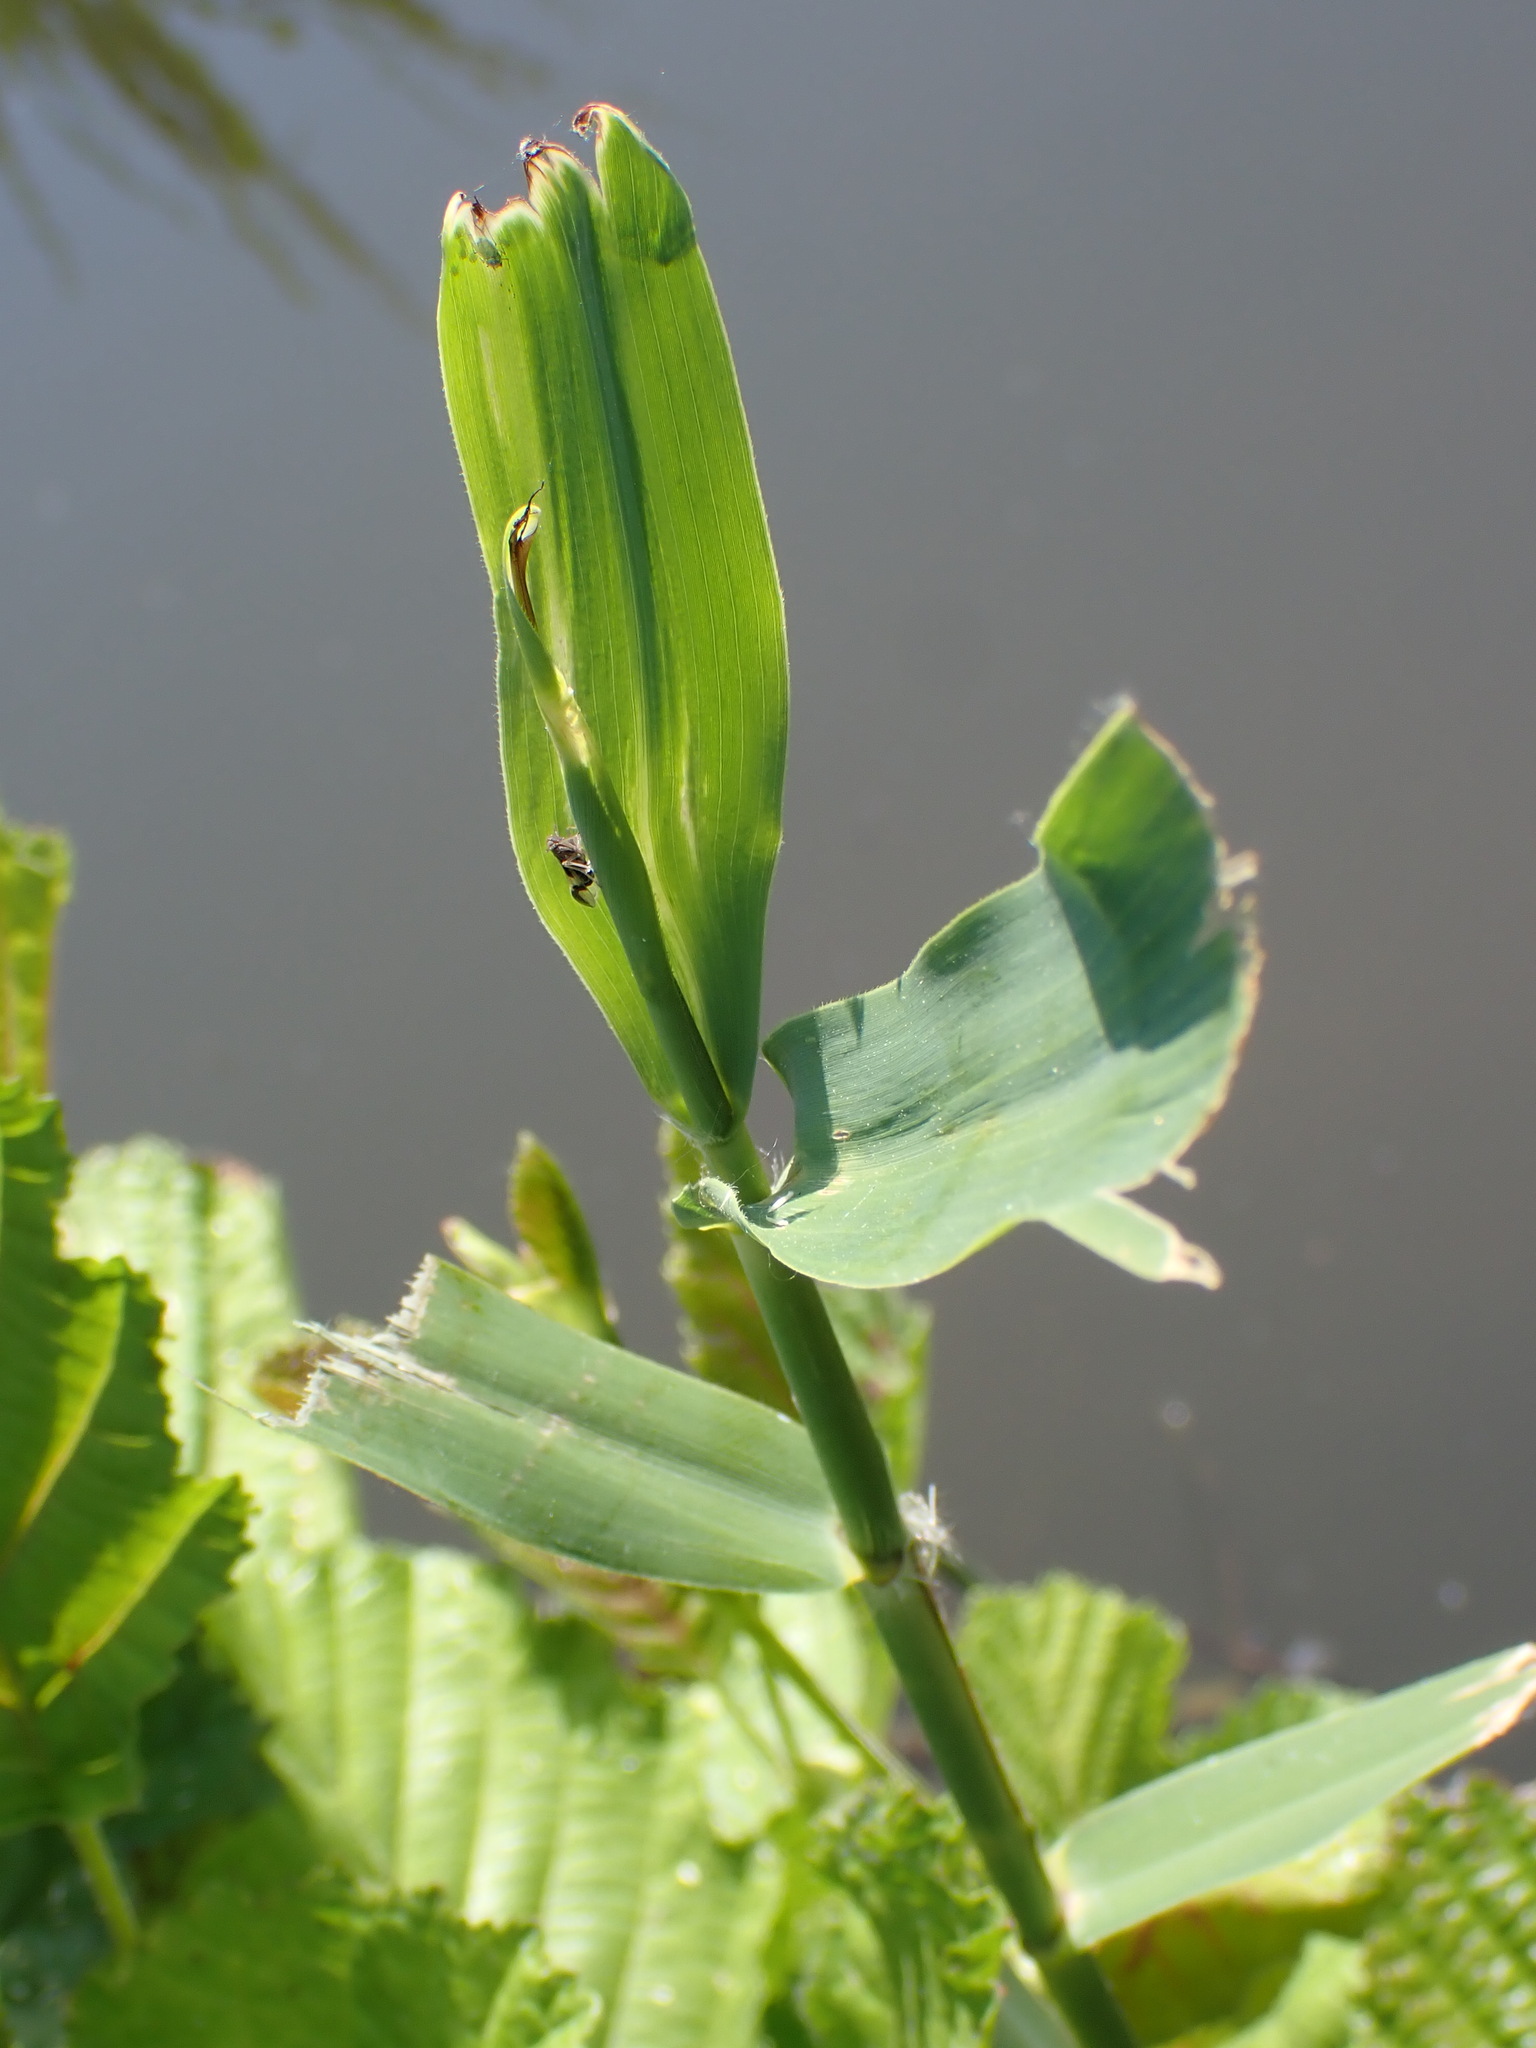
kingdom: Plantae
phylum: Tracheophyta
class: Liliopsida
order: Poales
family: Poaceae
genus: Phragmites
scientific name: Phragmites australis
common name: Common reed
